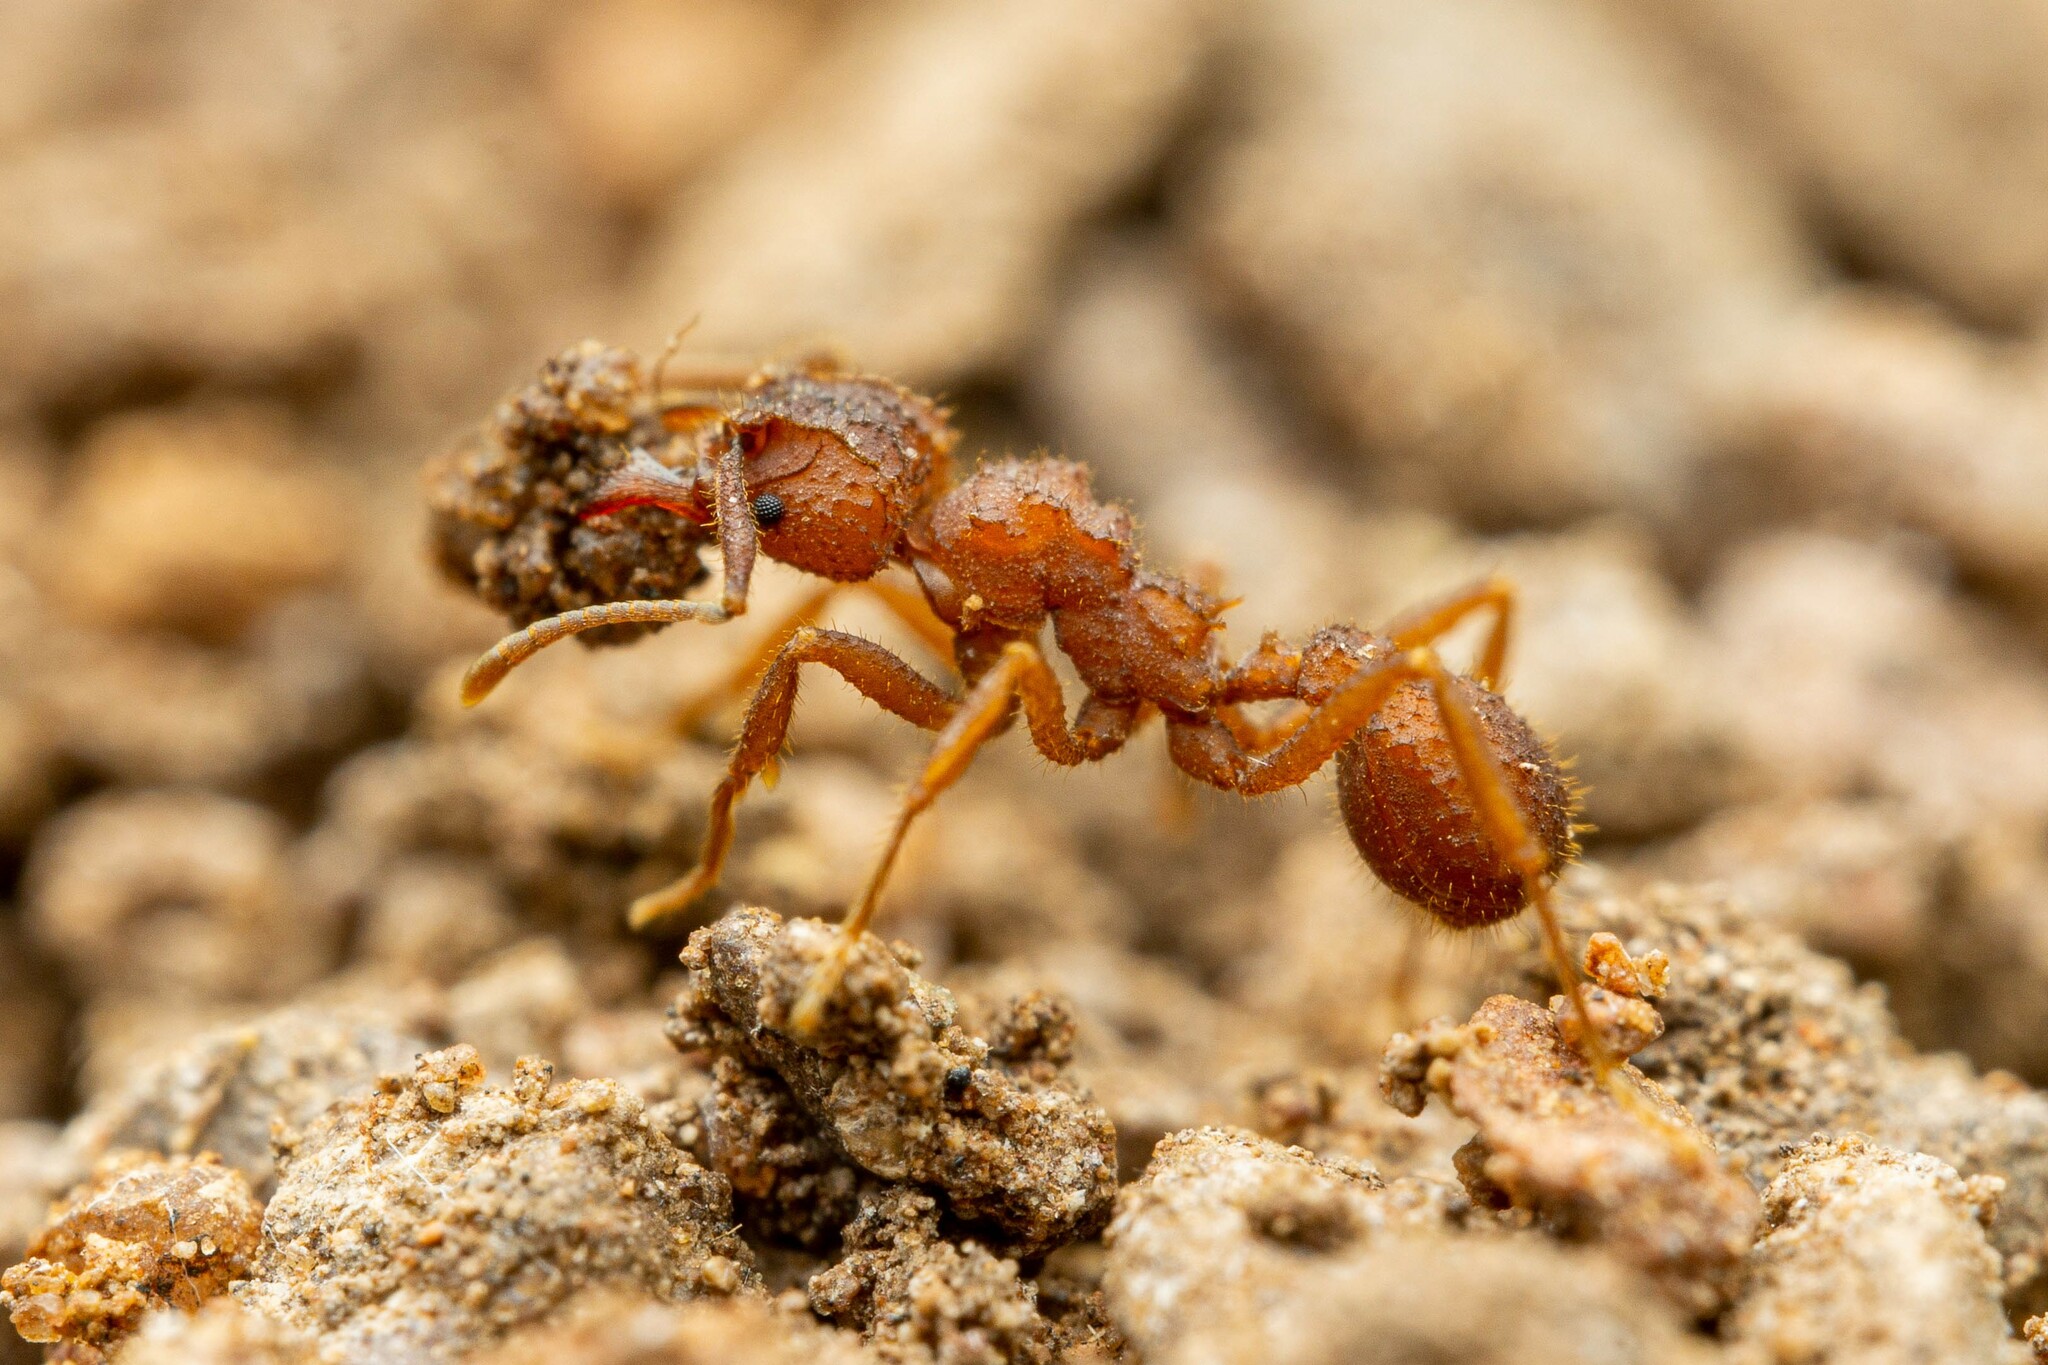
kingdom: Animalia
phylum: Arthropoda
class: Insecta
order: Hymenoptera
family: Formicidae
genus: Trachymyrmex
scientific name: Trachymyrmex carinatus
